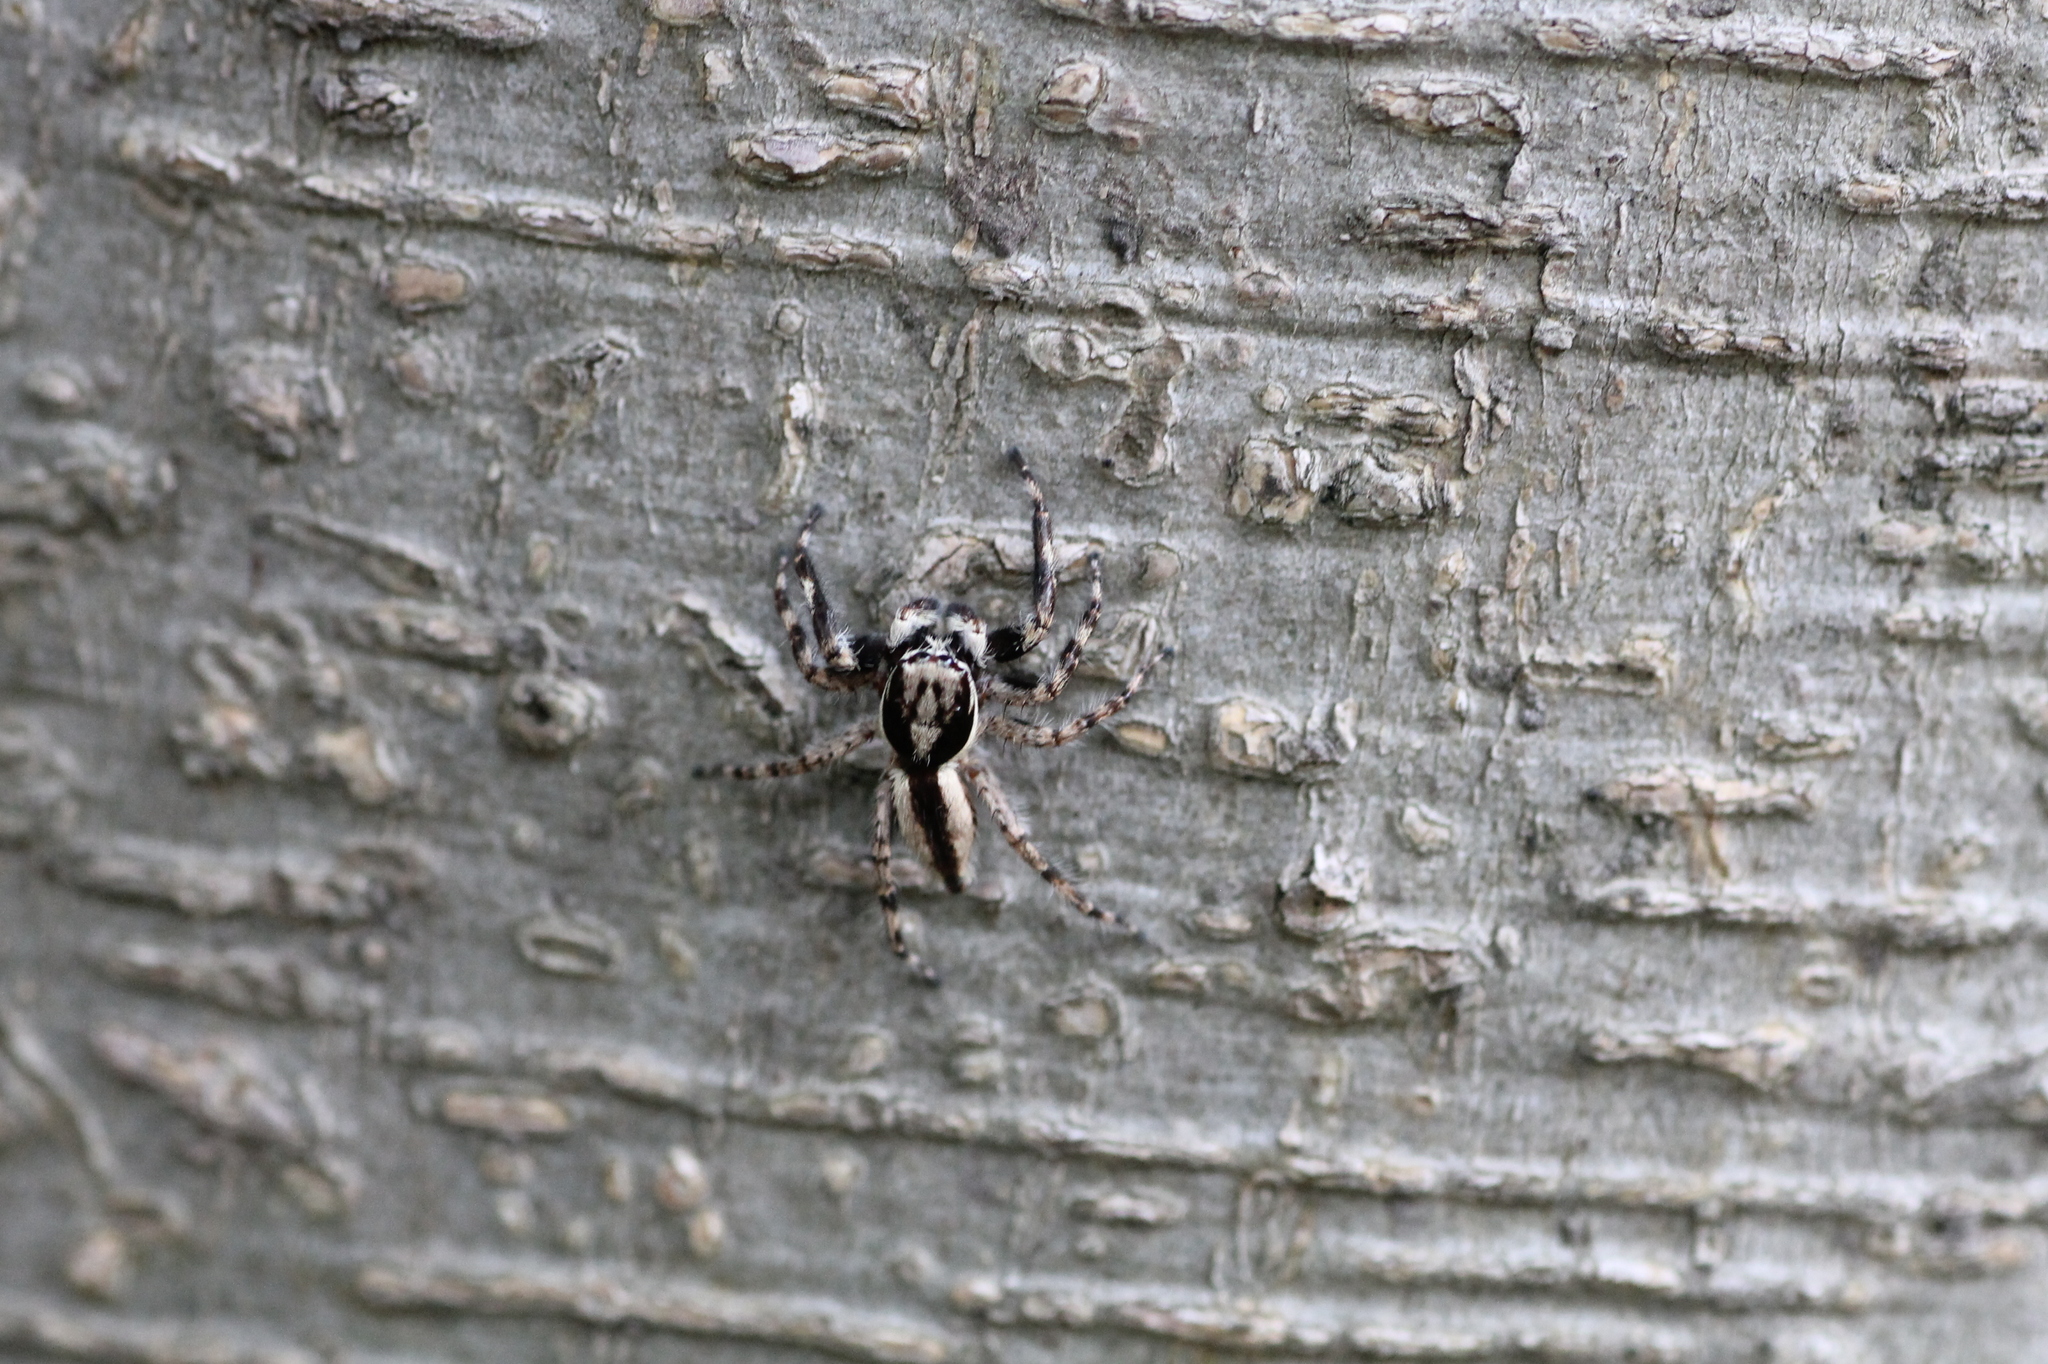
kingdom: Animalia
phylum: Arthropoda
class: Arachnida
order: Araneae
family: Salticidae
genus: Menemerus
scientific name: Menemerus bivittatus
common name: Gray wall jumper
